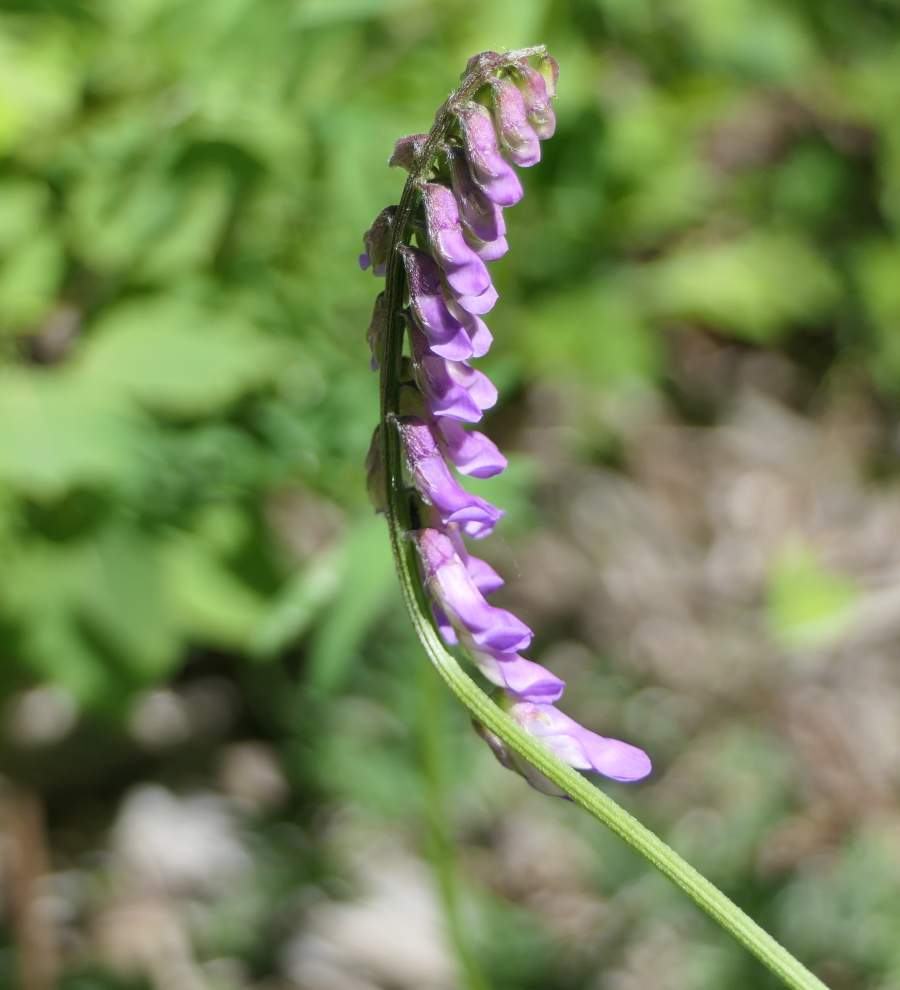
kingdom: Plantae
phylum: Tracheophyta
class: Magnoliopsida
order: Fabales
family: Fabaceae
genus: Vicia
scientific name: Vicia cracca
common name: Bird vetch
